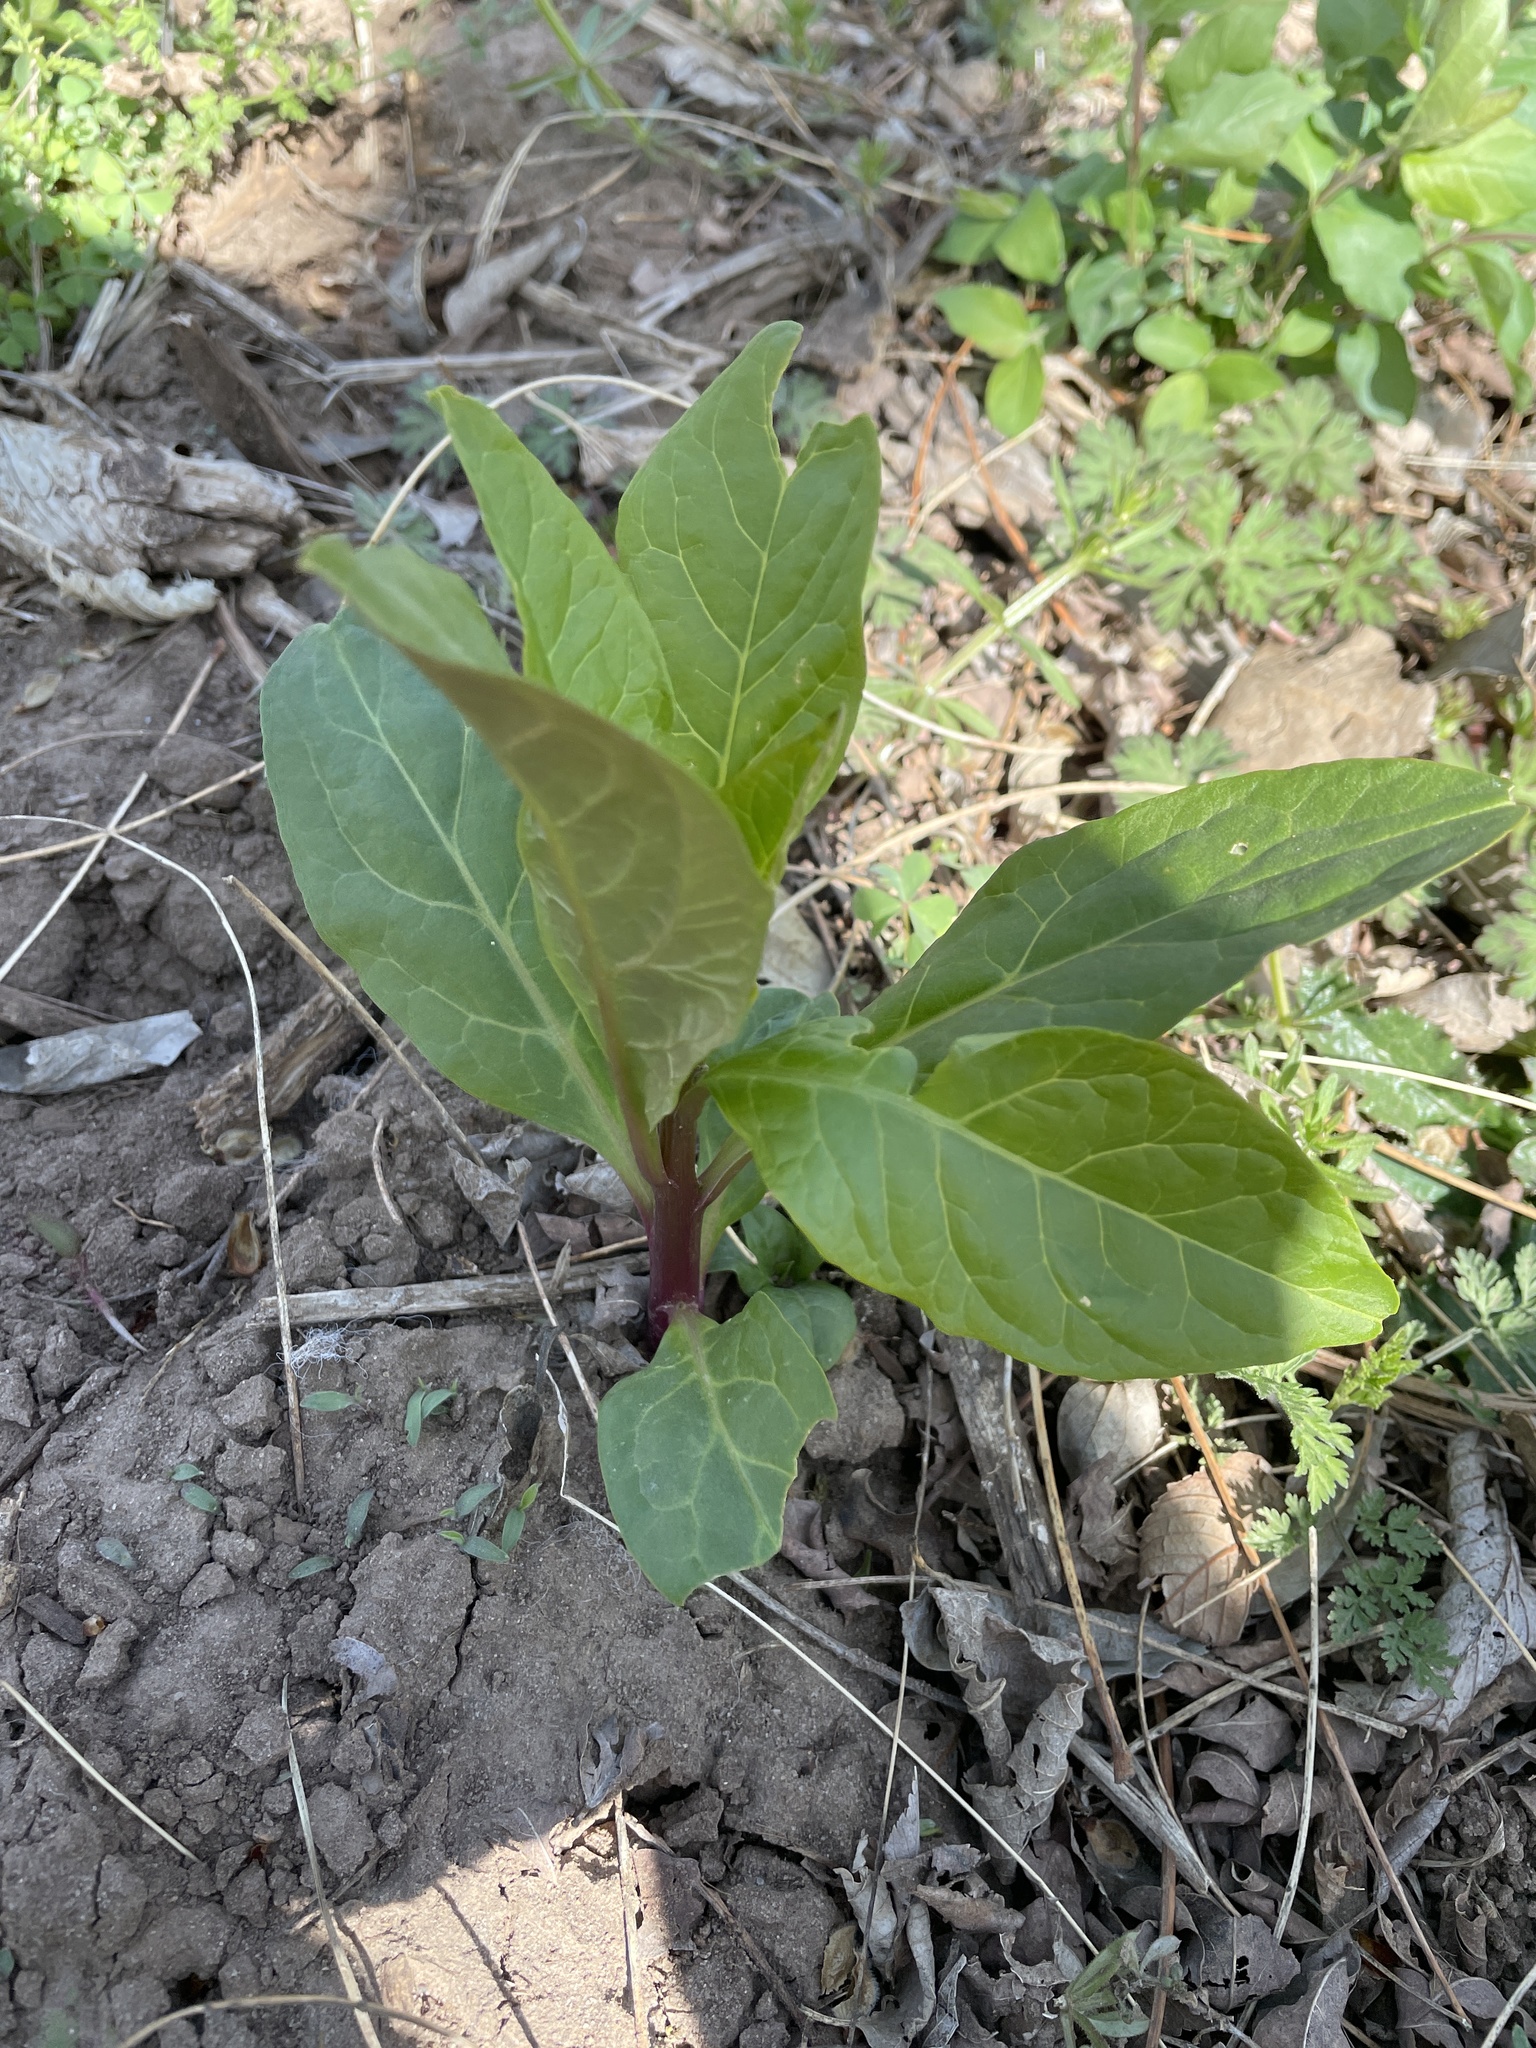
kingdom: Plantae
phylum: Tracheophyta
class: Magnoliopsida
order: Caryophyllales
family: Phytolaccaceae
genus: Phytolacca
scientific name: Phytolacca americana
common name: American pokeweed
